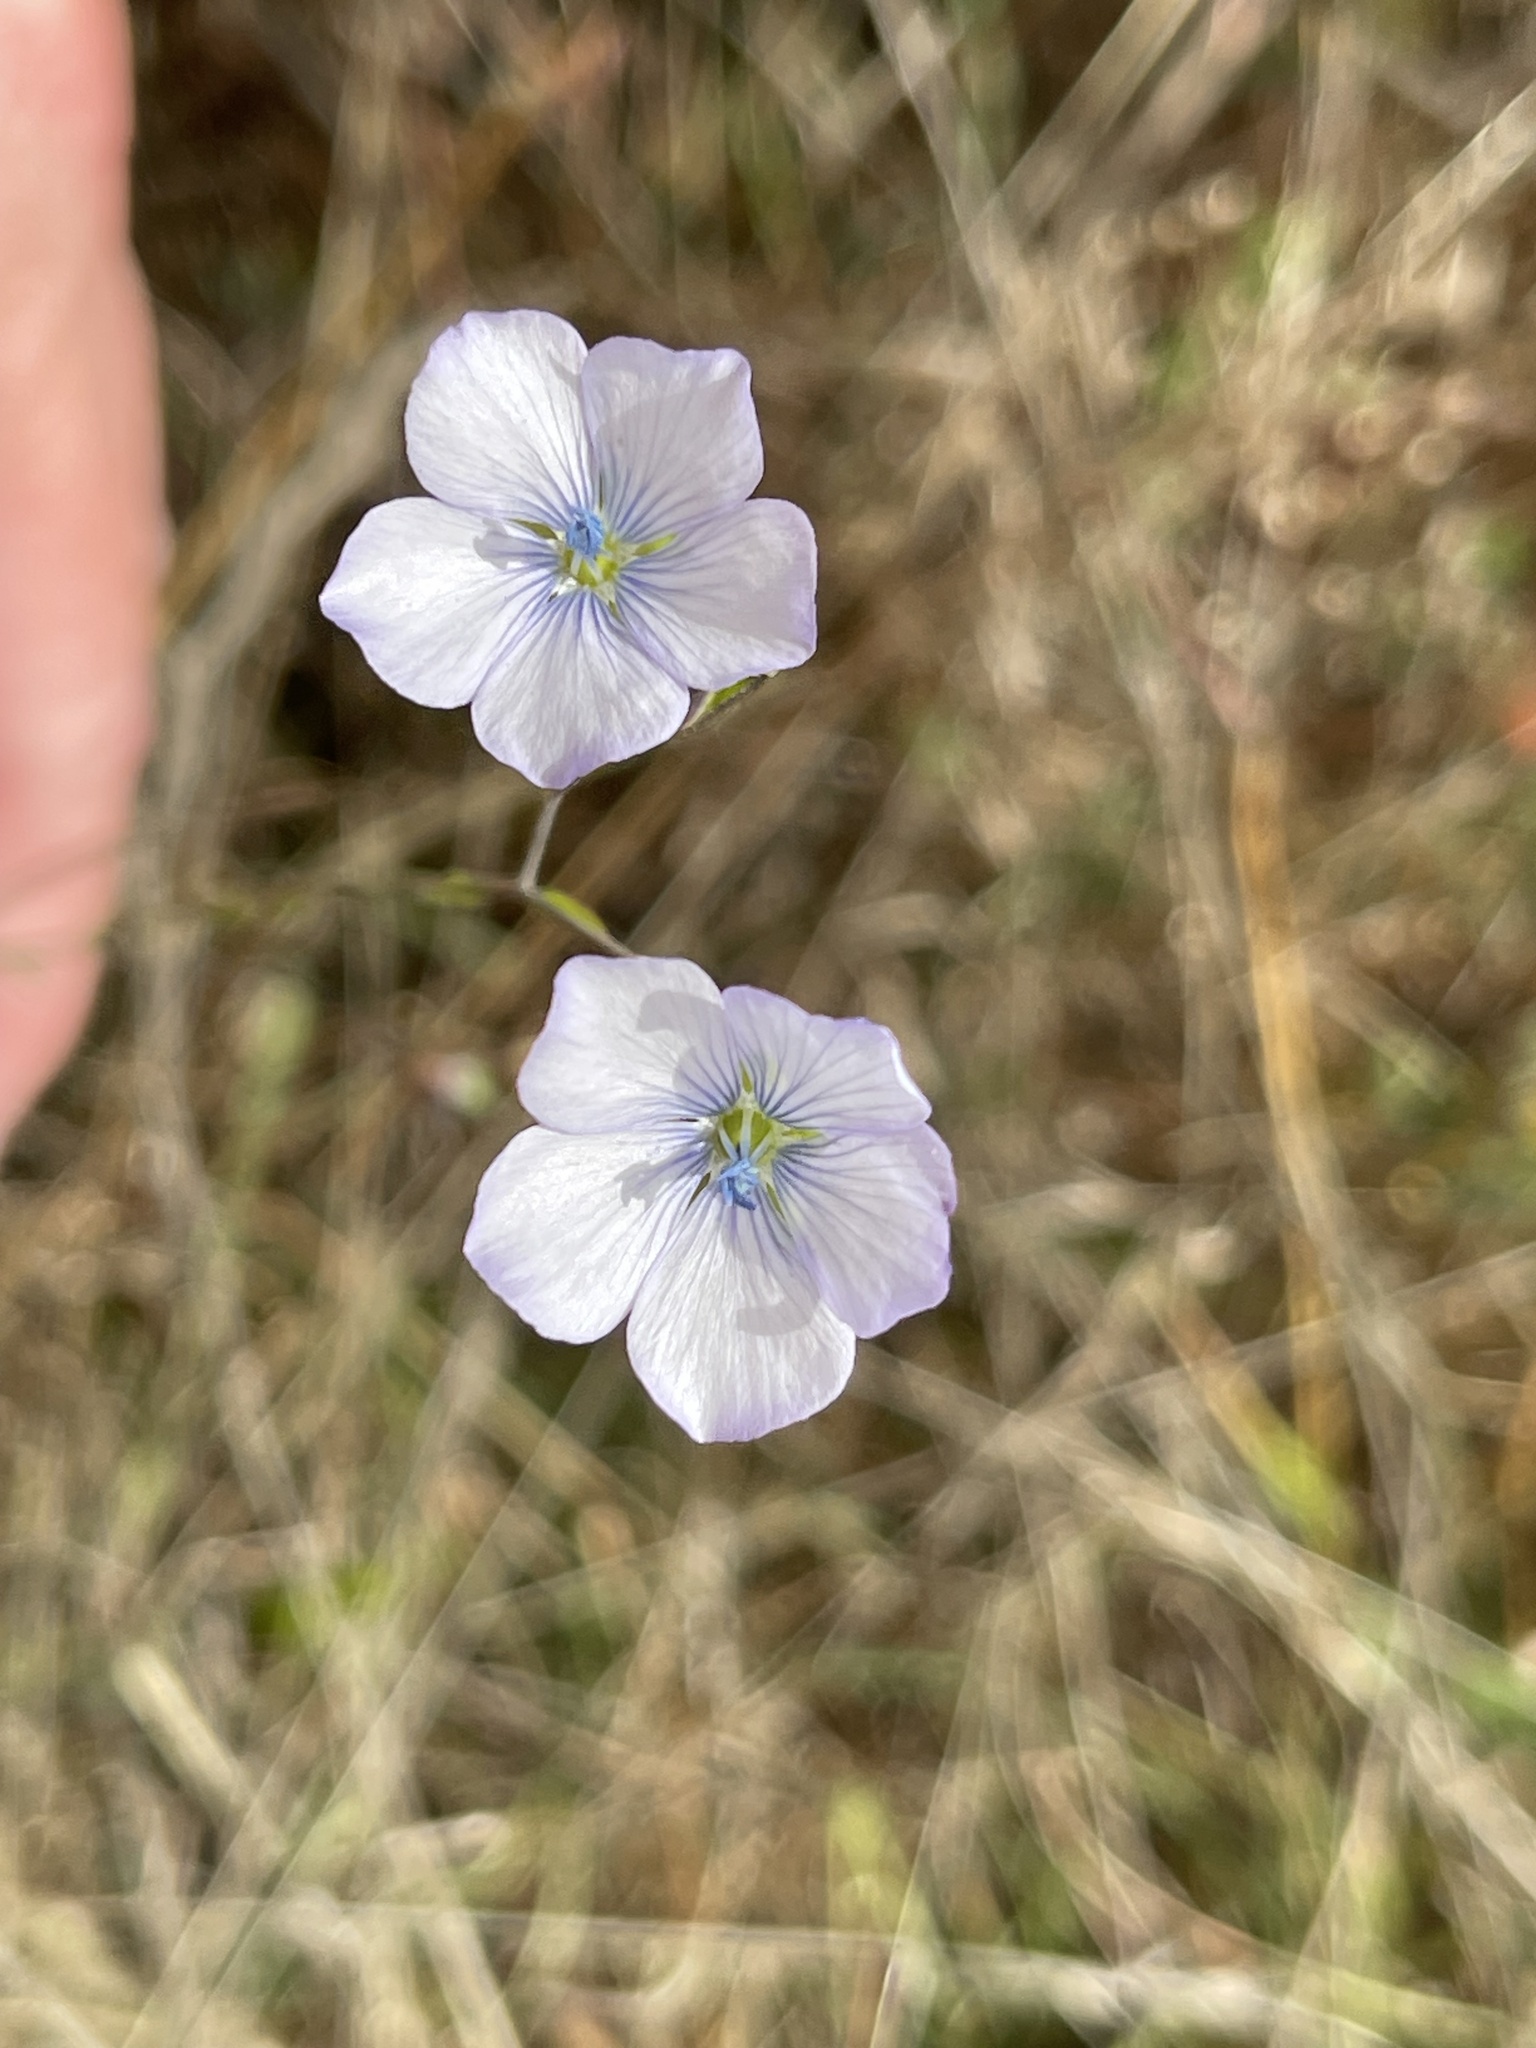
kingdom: Plantae
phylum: Tracheophyta
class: Magnoliopsida
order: Malpighiales
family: Linaceae
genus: Linum
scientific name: Linum bienne
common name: Pale flax
